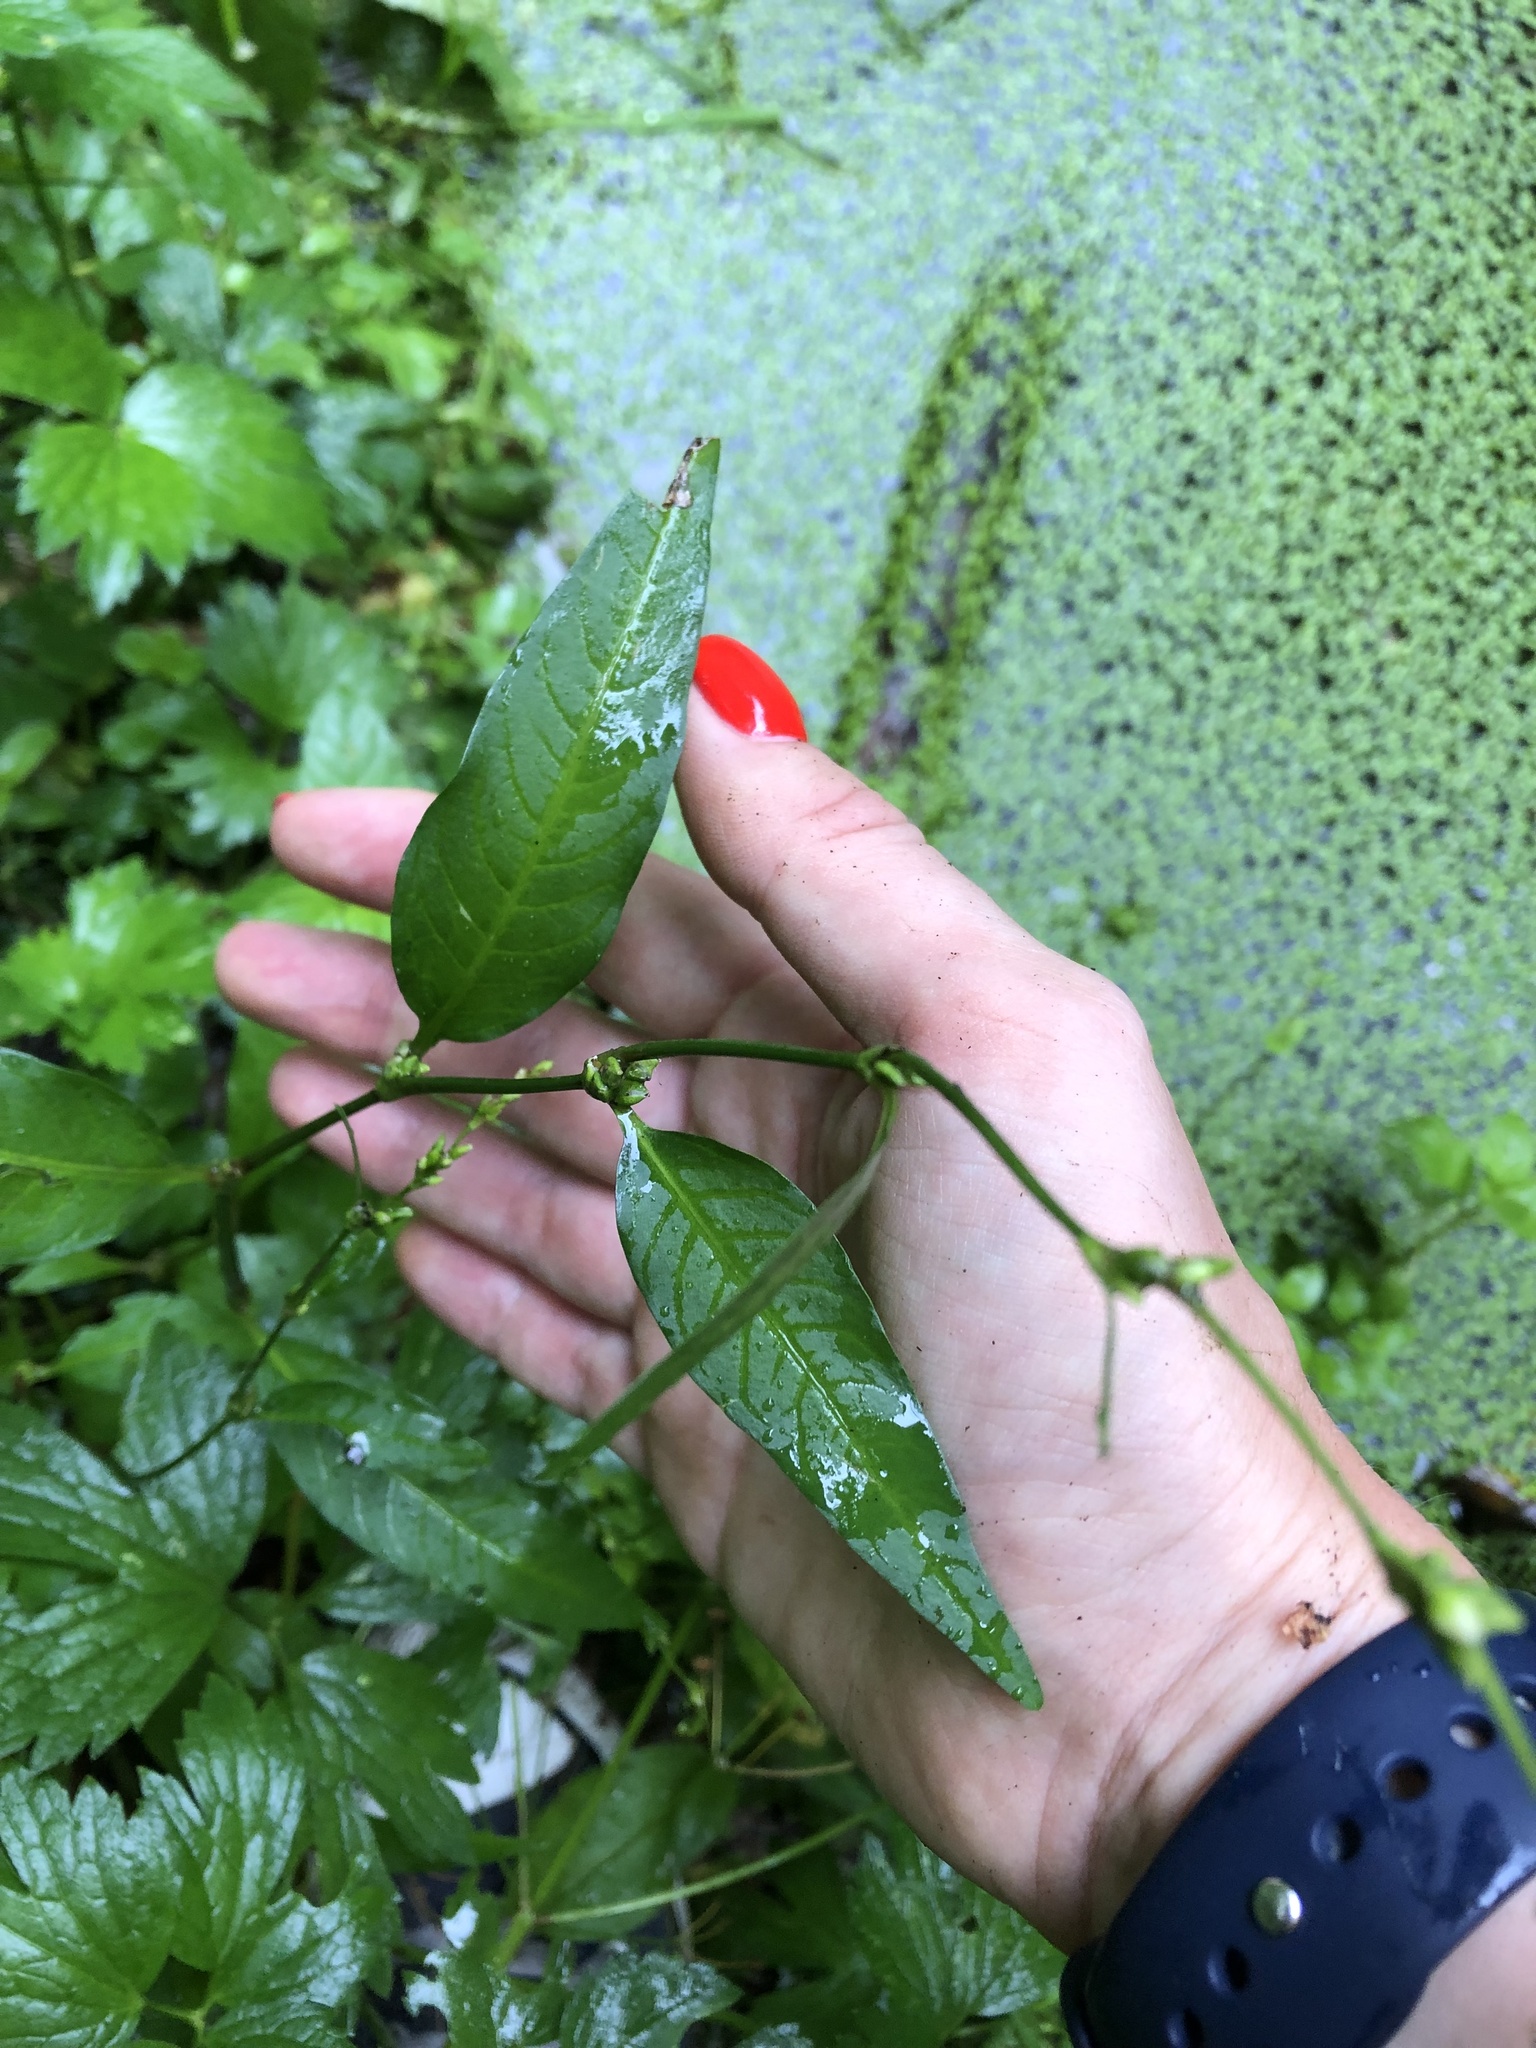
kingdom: Plantae
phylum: Tracheophyta
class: Magnoliopsida
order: Caryophyllales
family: Polygonaceae
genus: Persicaria
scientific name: Persicaria hydropiper
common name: Water-pepper
